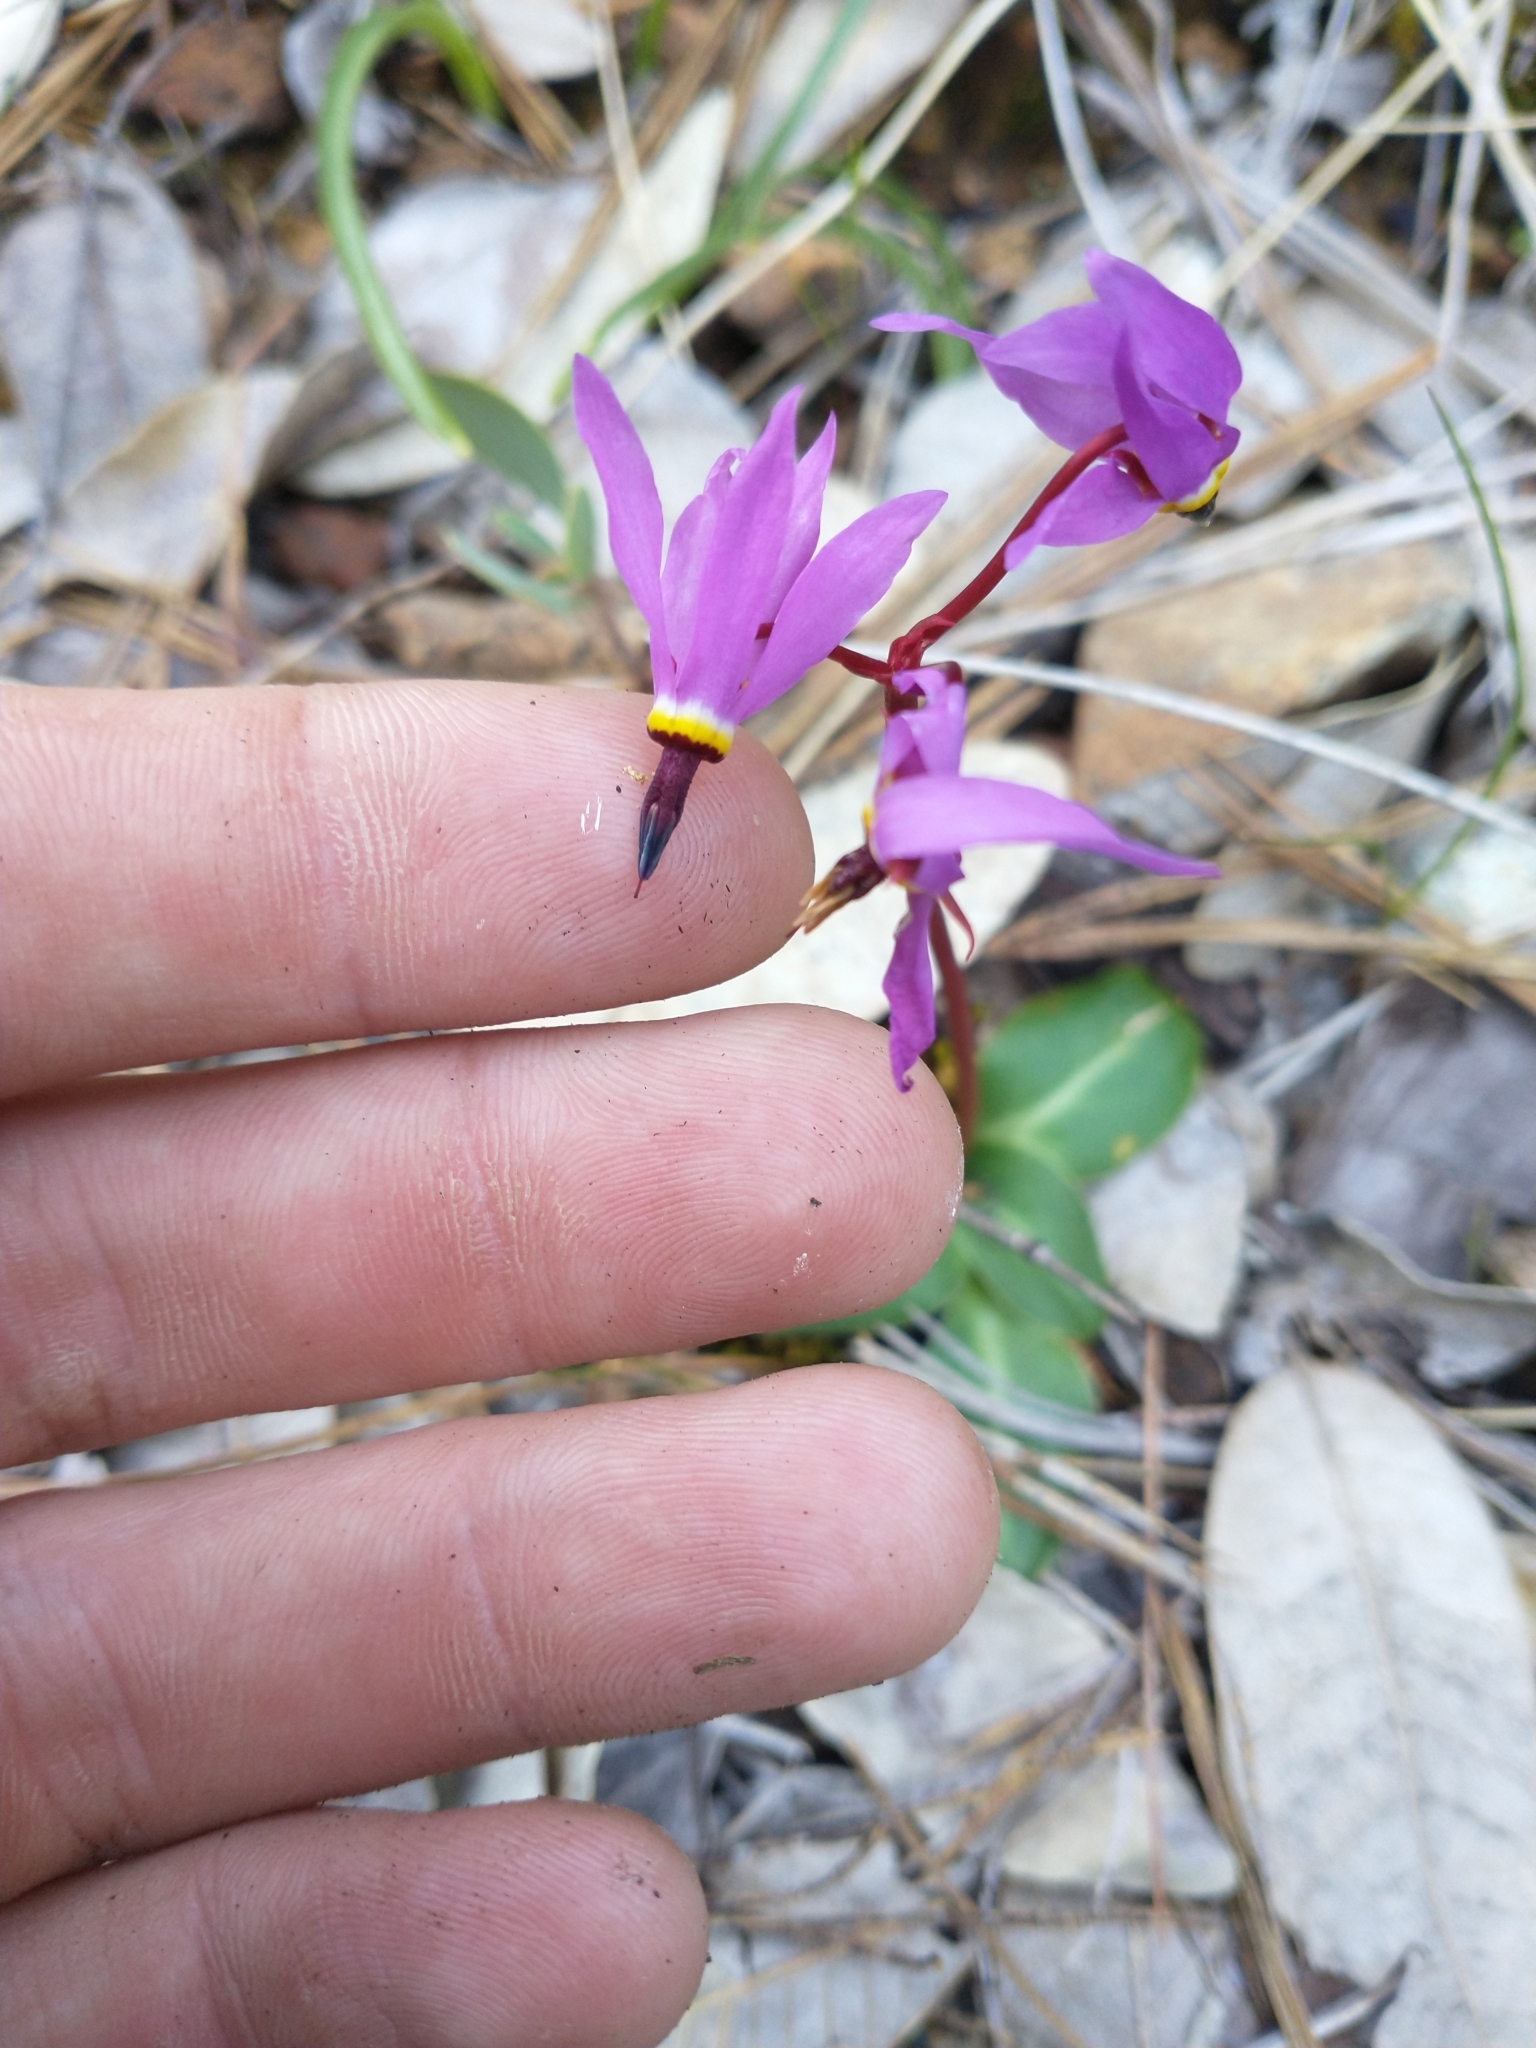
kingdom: Plantae
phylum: Tracheophyta
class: Magnoliopsida
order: Ericales
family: Primulaceae
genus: Dodecatheon
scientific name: Dodecatheon hendersonii
